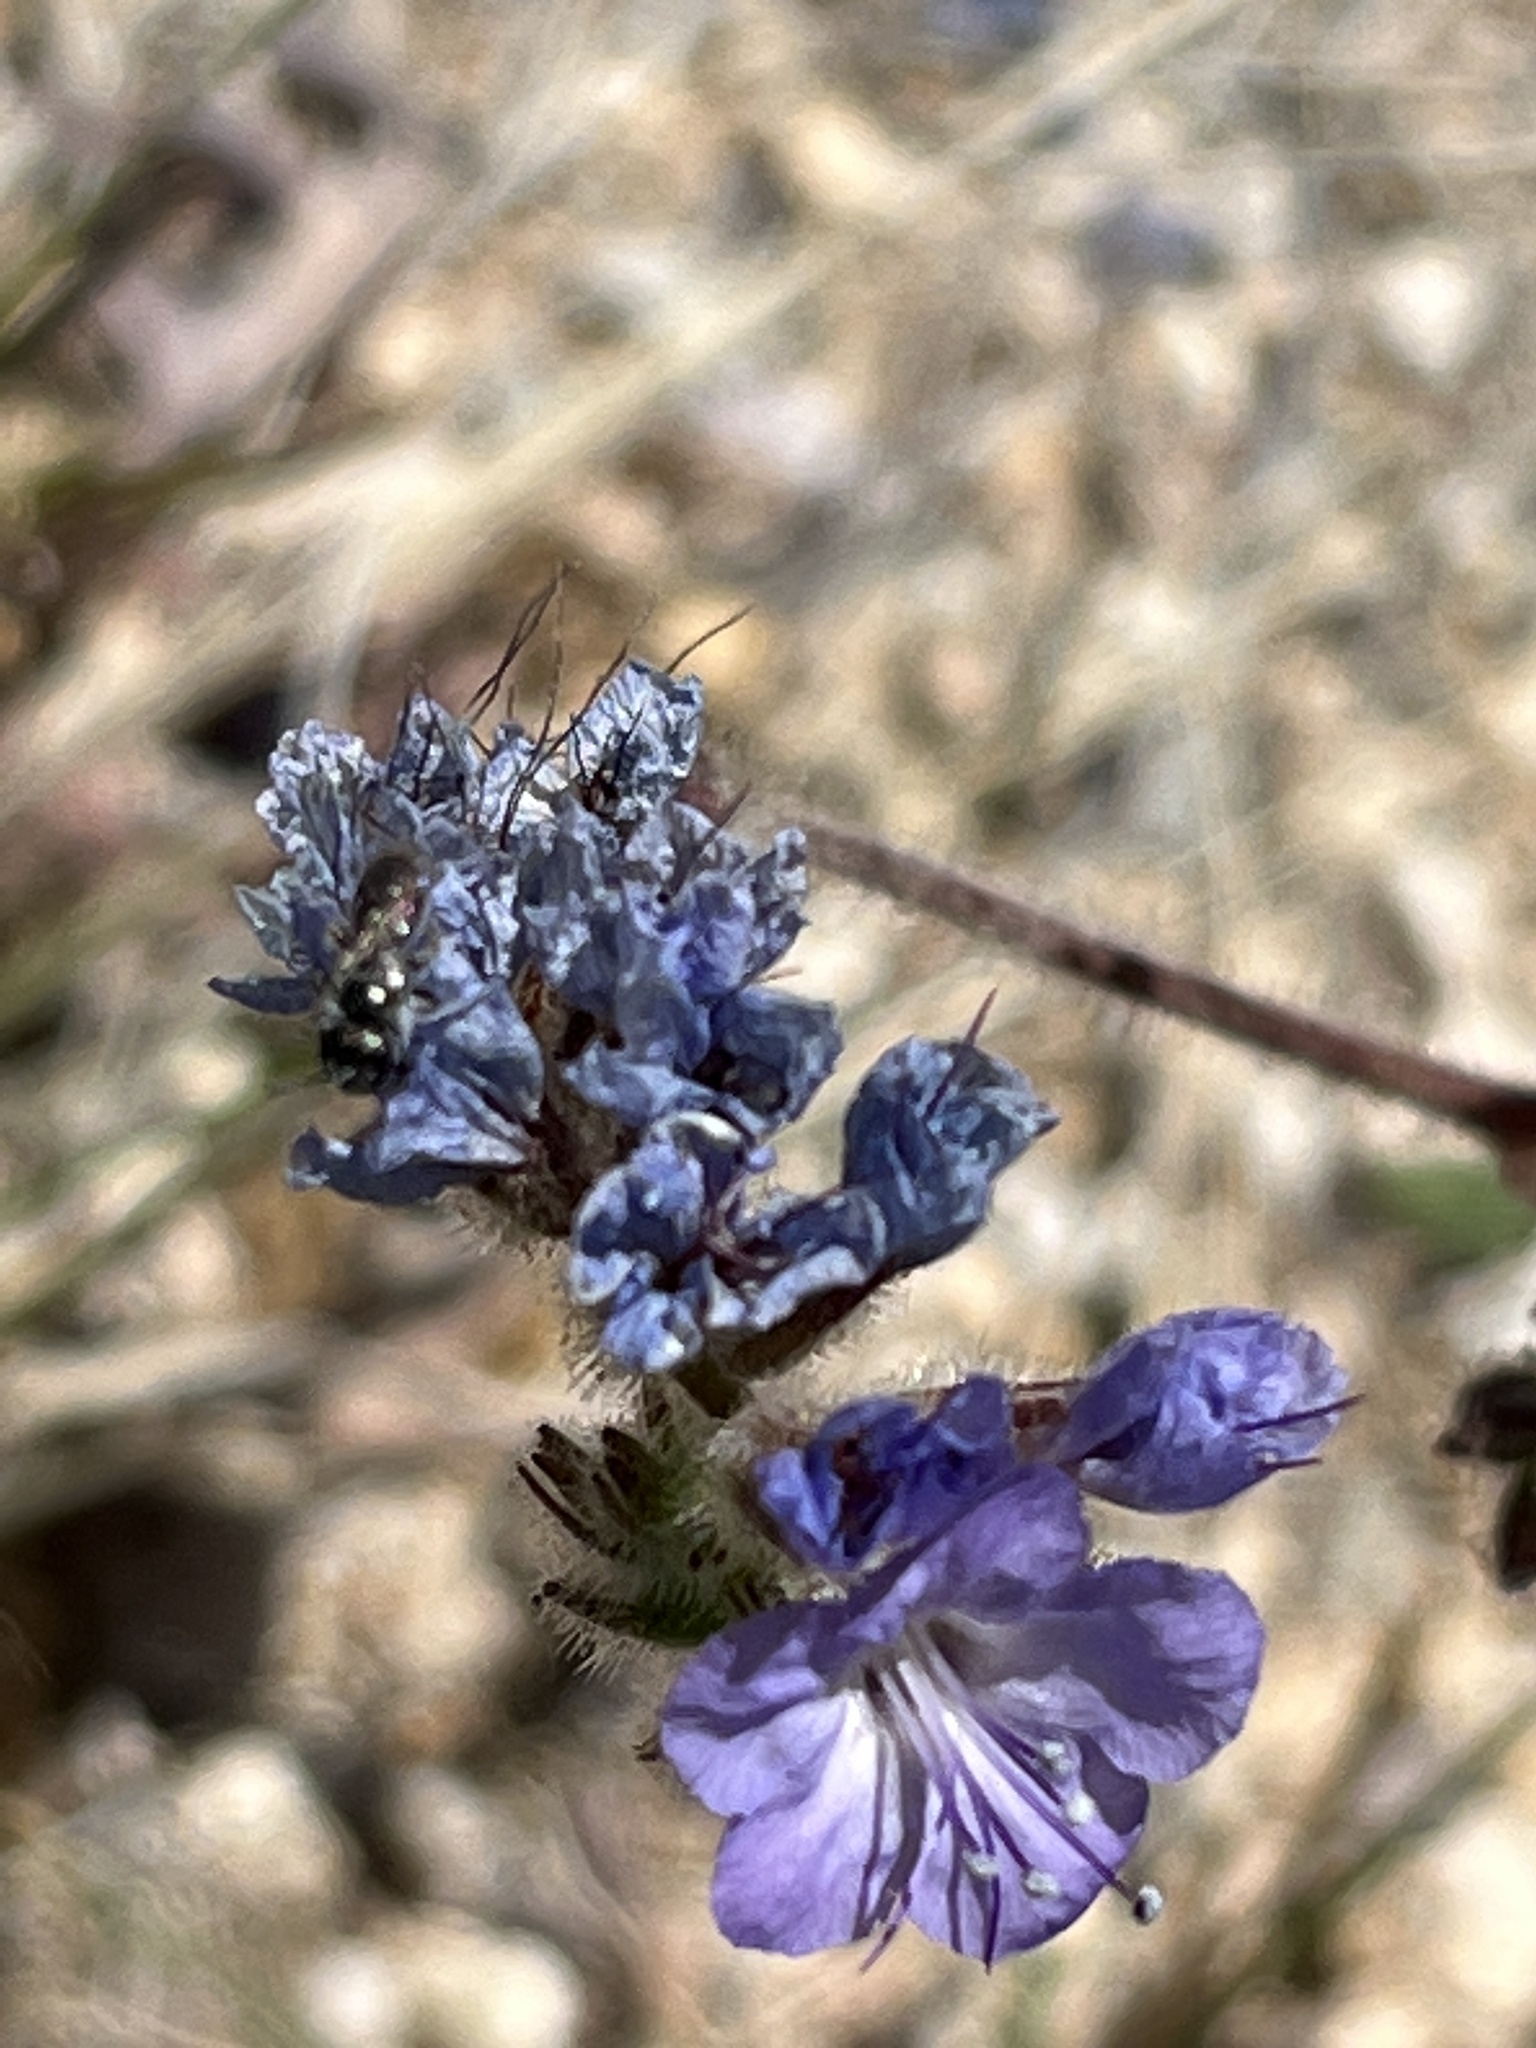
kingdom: Animalia
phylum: Arthropoda
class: Insecta
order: Hymenoptera
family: Halictidae
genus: Dialictus
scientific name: Dialictus
